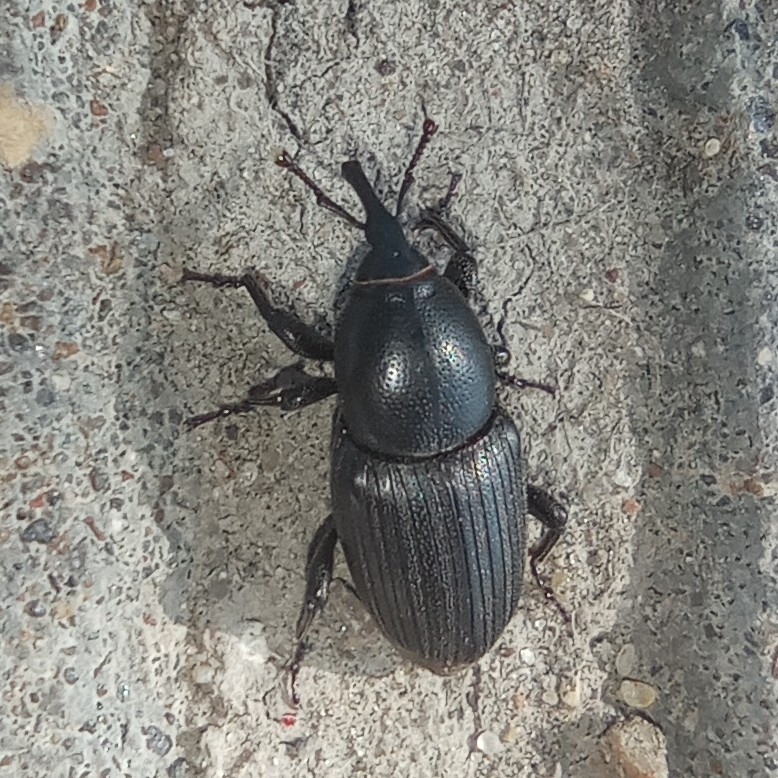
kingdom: Animalia
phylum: Arthropoda
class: Insecta
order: Coleoptera
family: Dryophthoridae
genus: Sphenophorus
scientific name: Sphenophorus striatopunctatus
